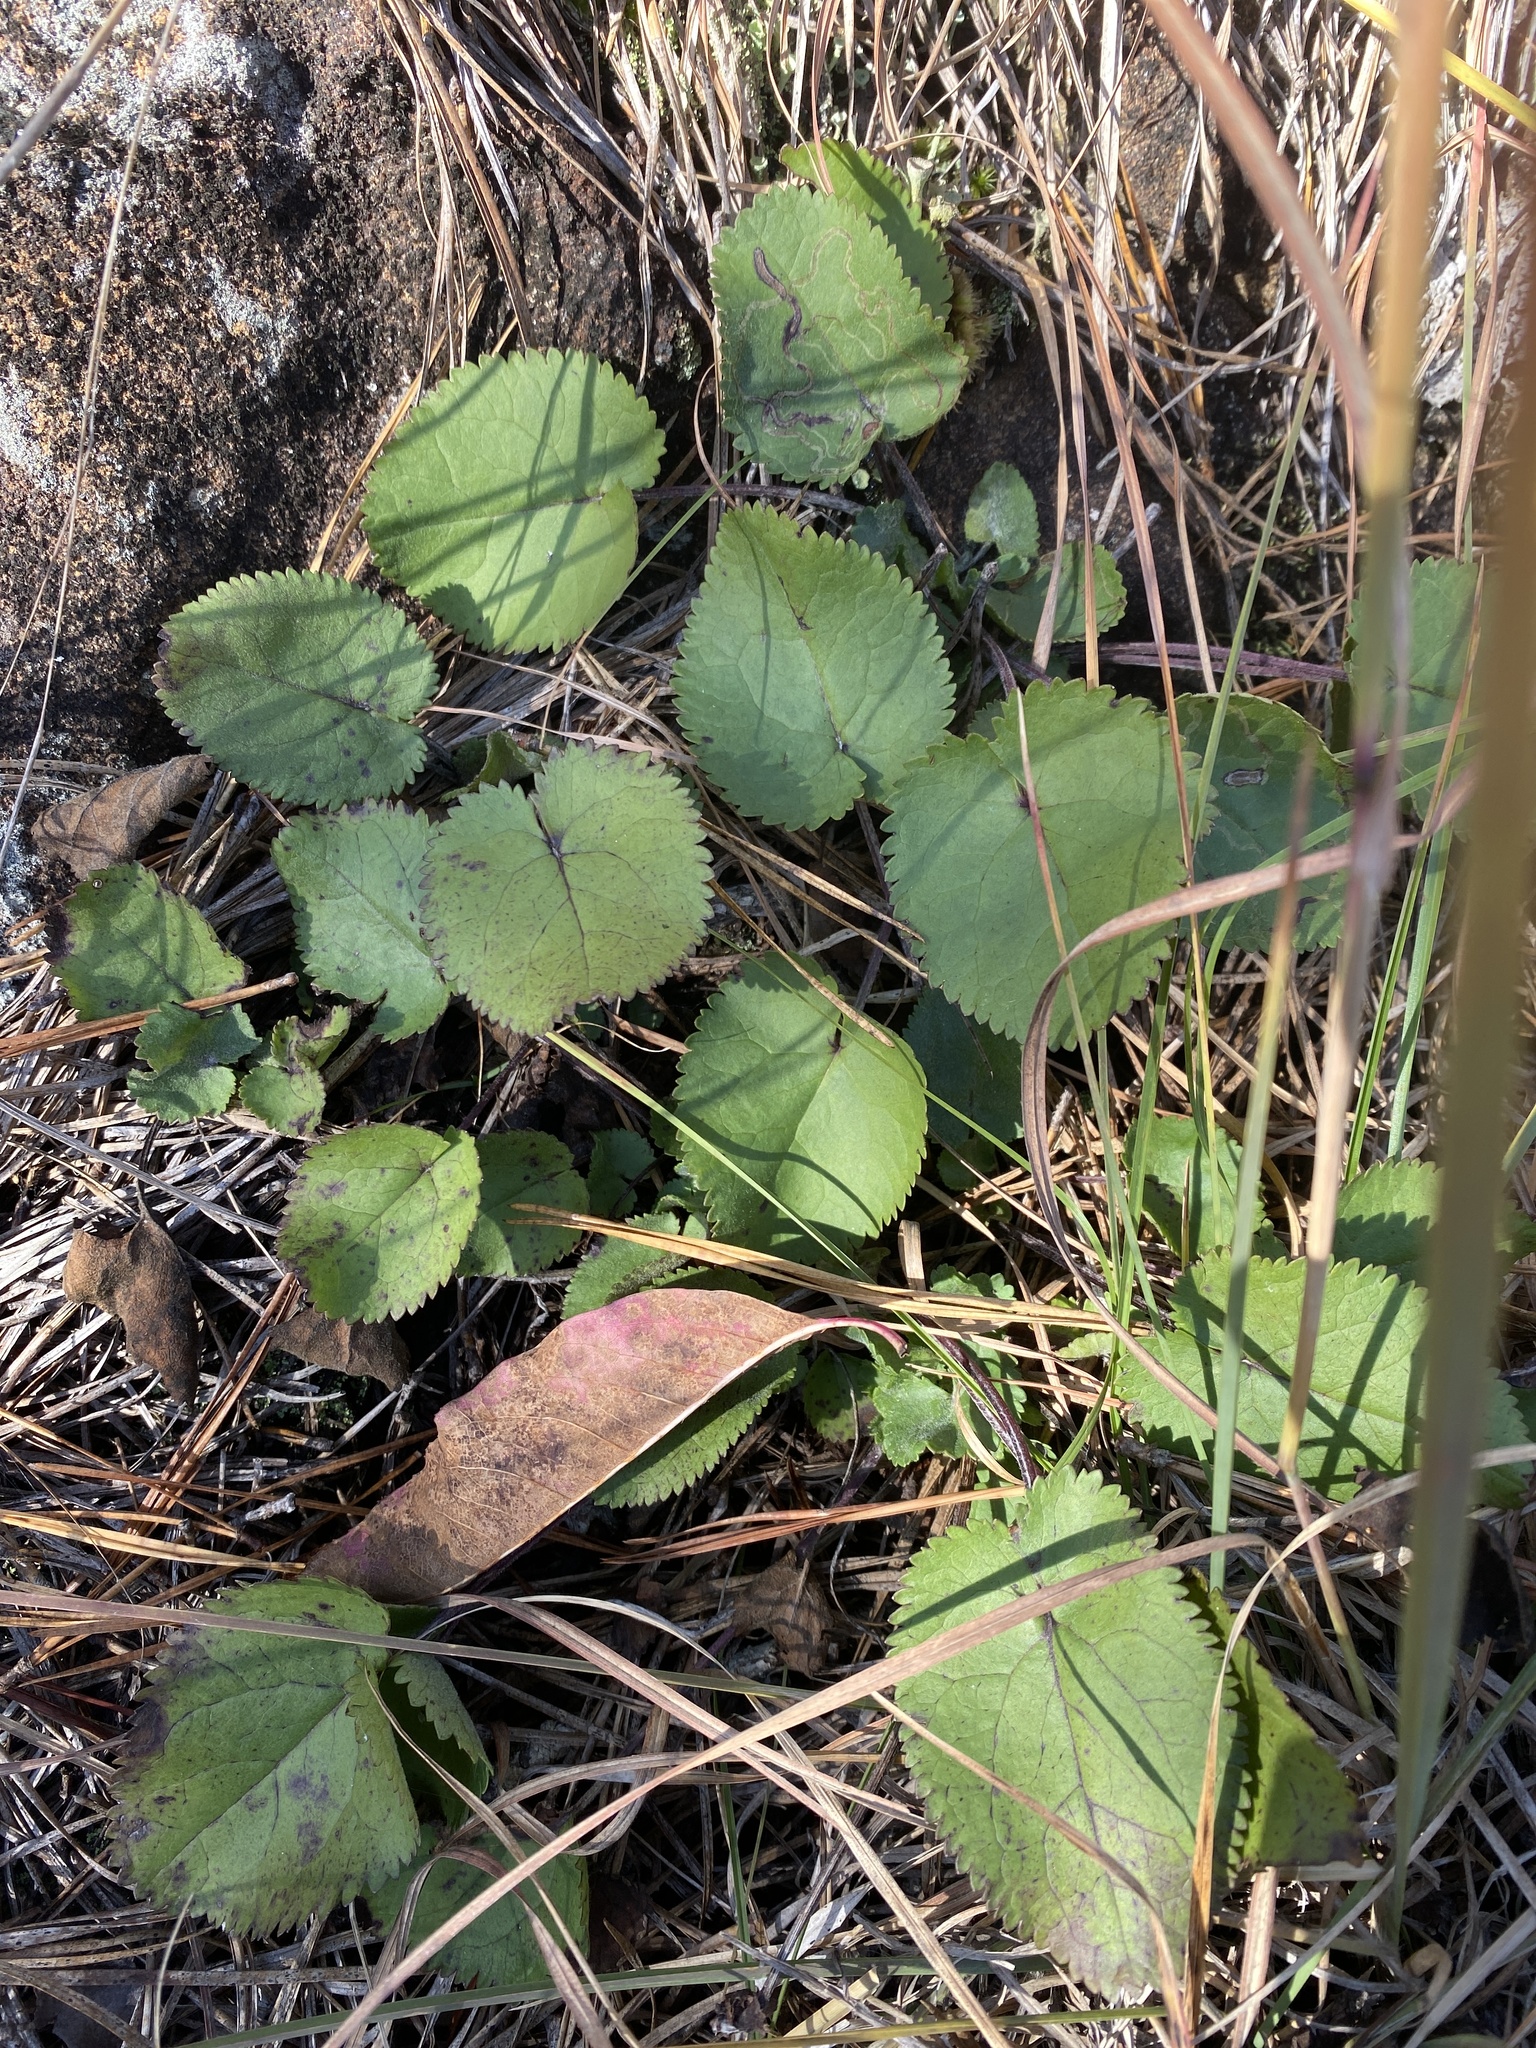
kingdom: Plantae
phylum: Tracheophyta
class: Magnoliopsida
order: Asterales
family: Asteraceae
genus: Packera
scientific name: Packera serpenticola
